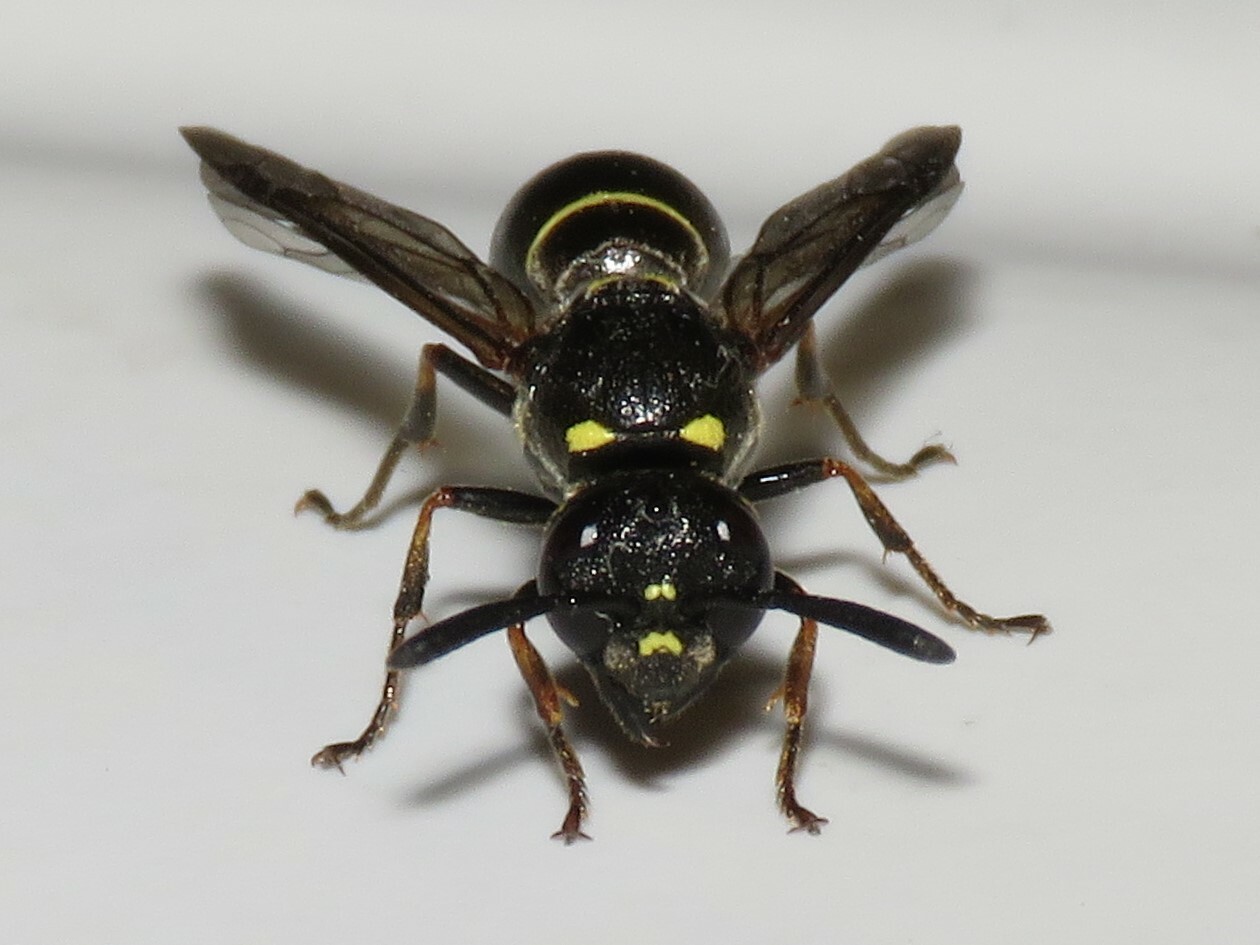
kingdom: Animalia
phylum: Arthropoda
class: Insecta
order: Hymenoptera
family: Eumenidae
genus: Symmorphus
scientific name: Symmorphus
